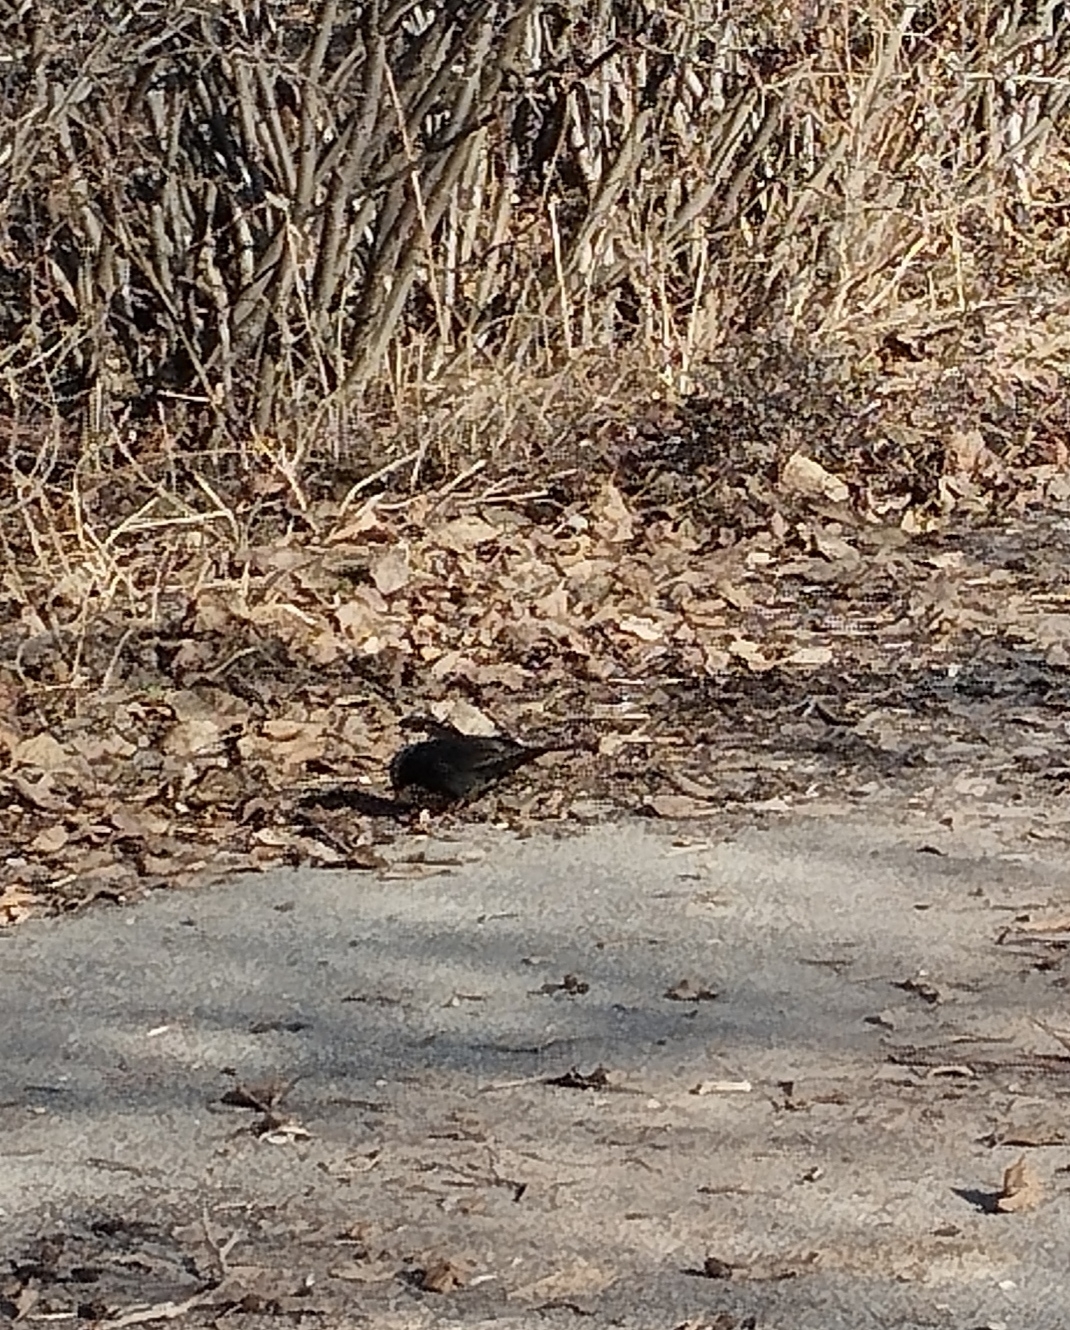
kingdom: Animalia
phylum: Chordata
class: Aves
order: Passeriformes
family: Turdidae
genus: Turdus
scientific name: Turdus merula
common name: Common blackbird
